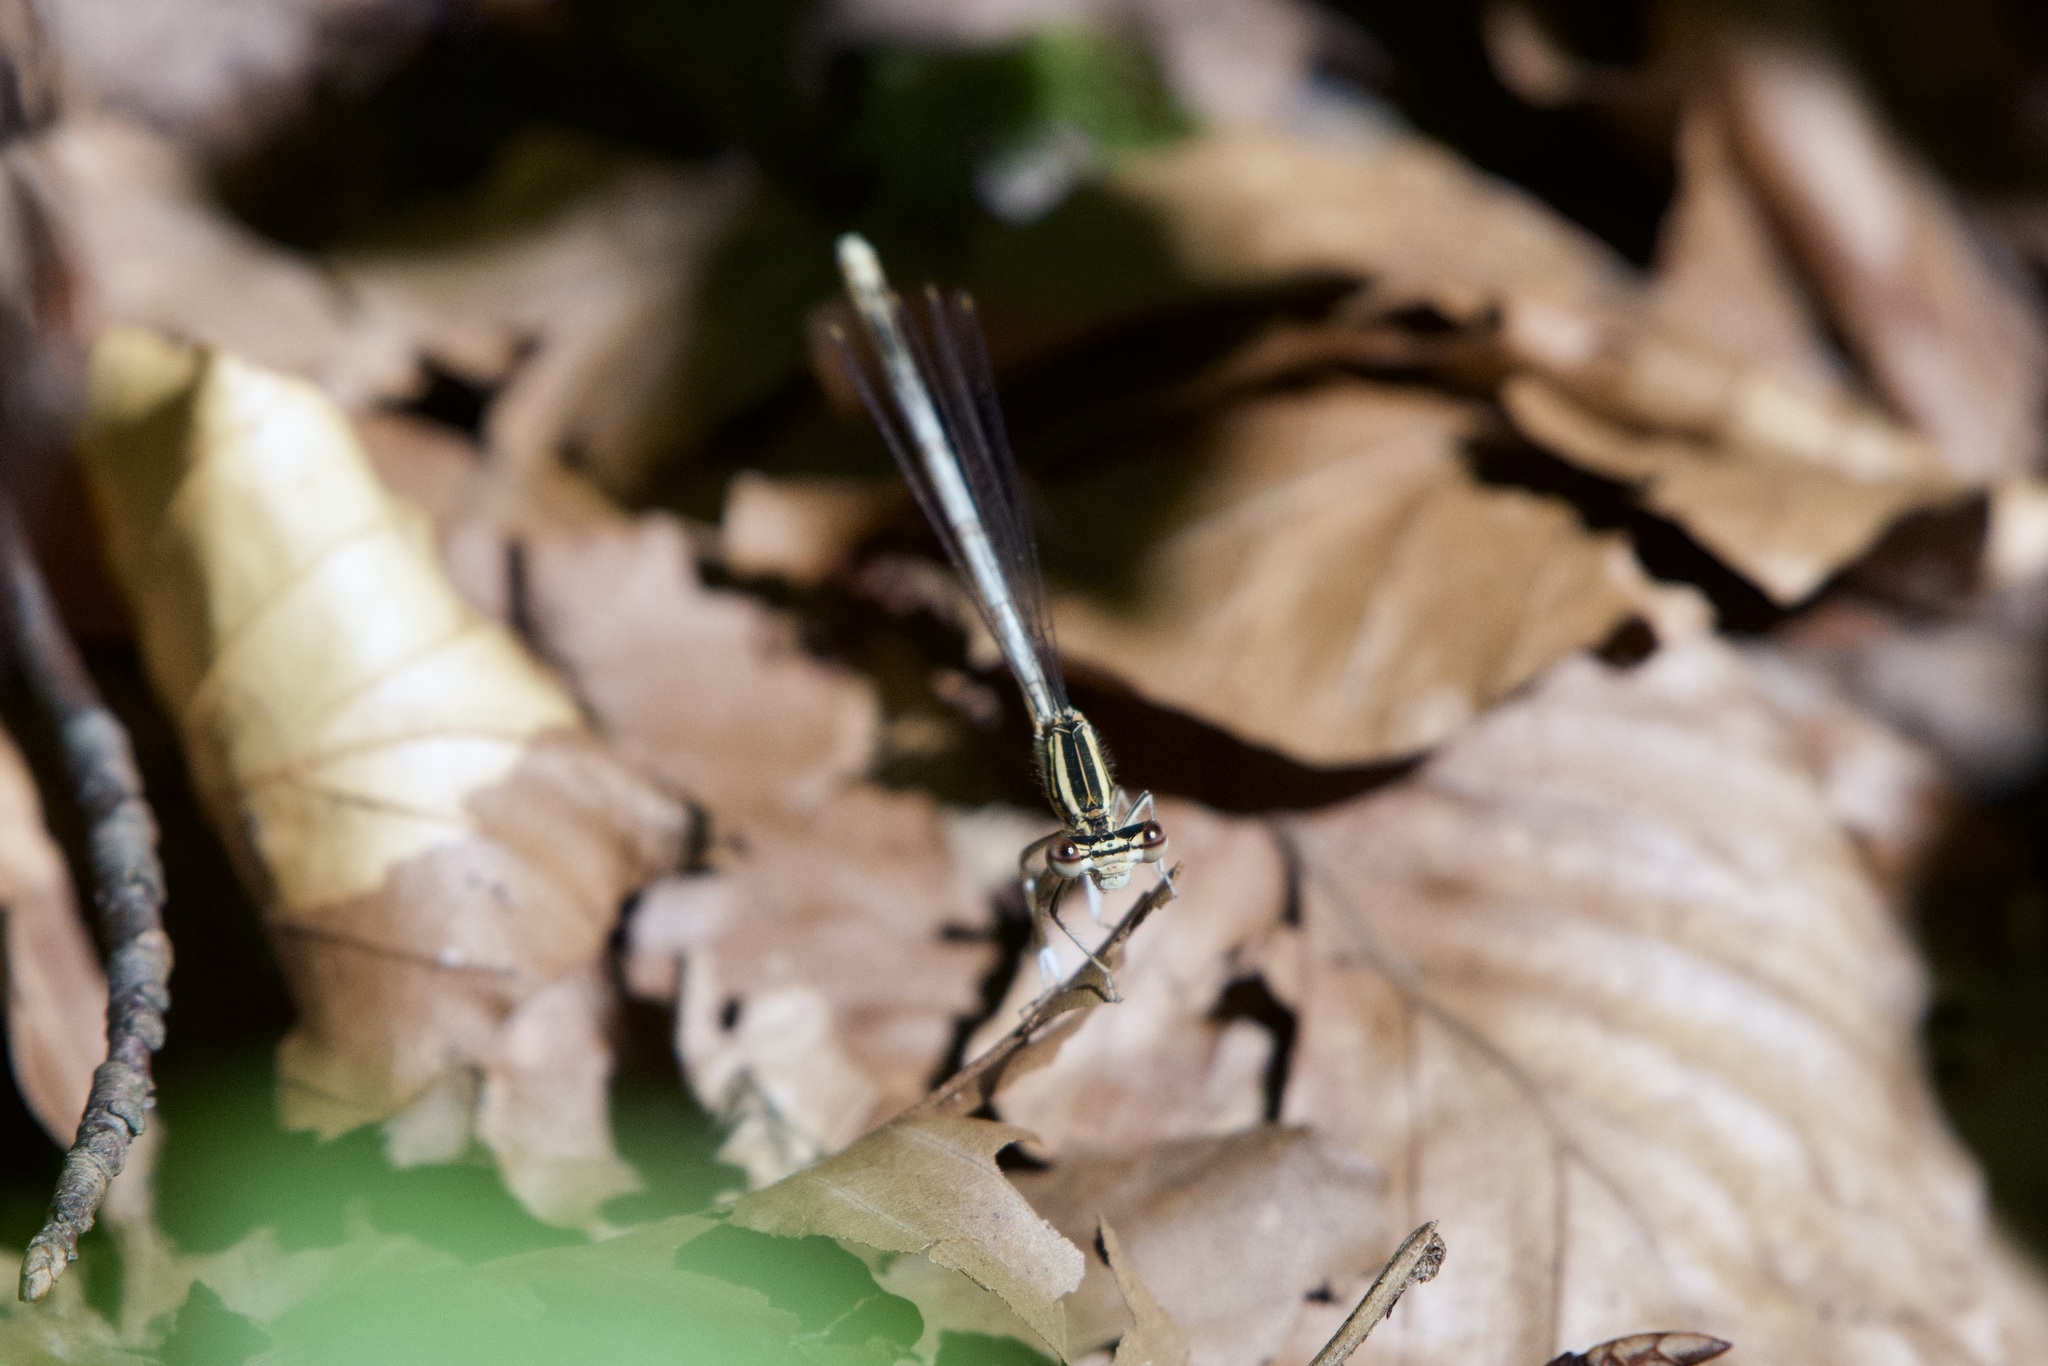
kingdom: Animalia
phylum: Arthropoda
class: Insecta
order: Odonata
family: Platycnemididae
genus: Platycnemis
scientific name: Platycnemis pennipes
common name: White-legged damselfly
